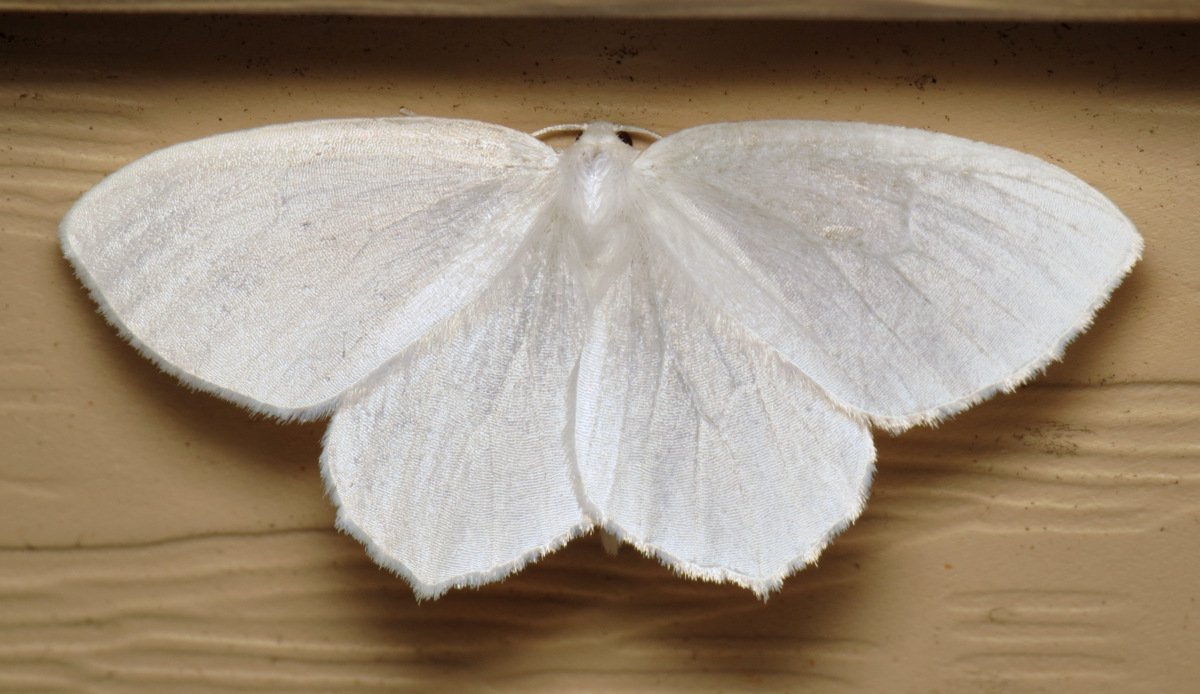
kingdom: Animalia
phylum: Arthropoda
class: Insecta
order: Lepidoptera
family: Geometridae
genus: Eugonobapta
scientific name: Eugonobapta nivosaria
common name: Snowy geometer
